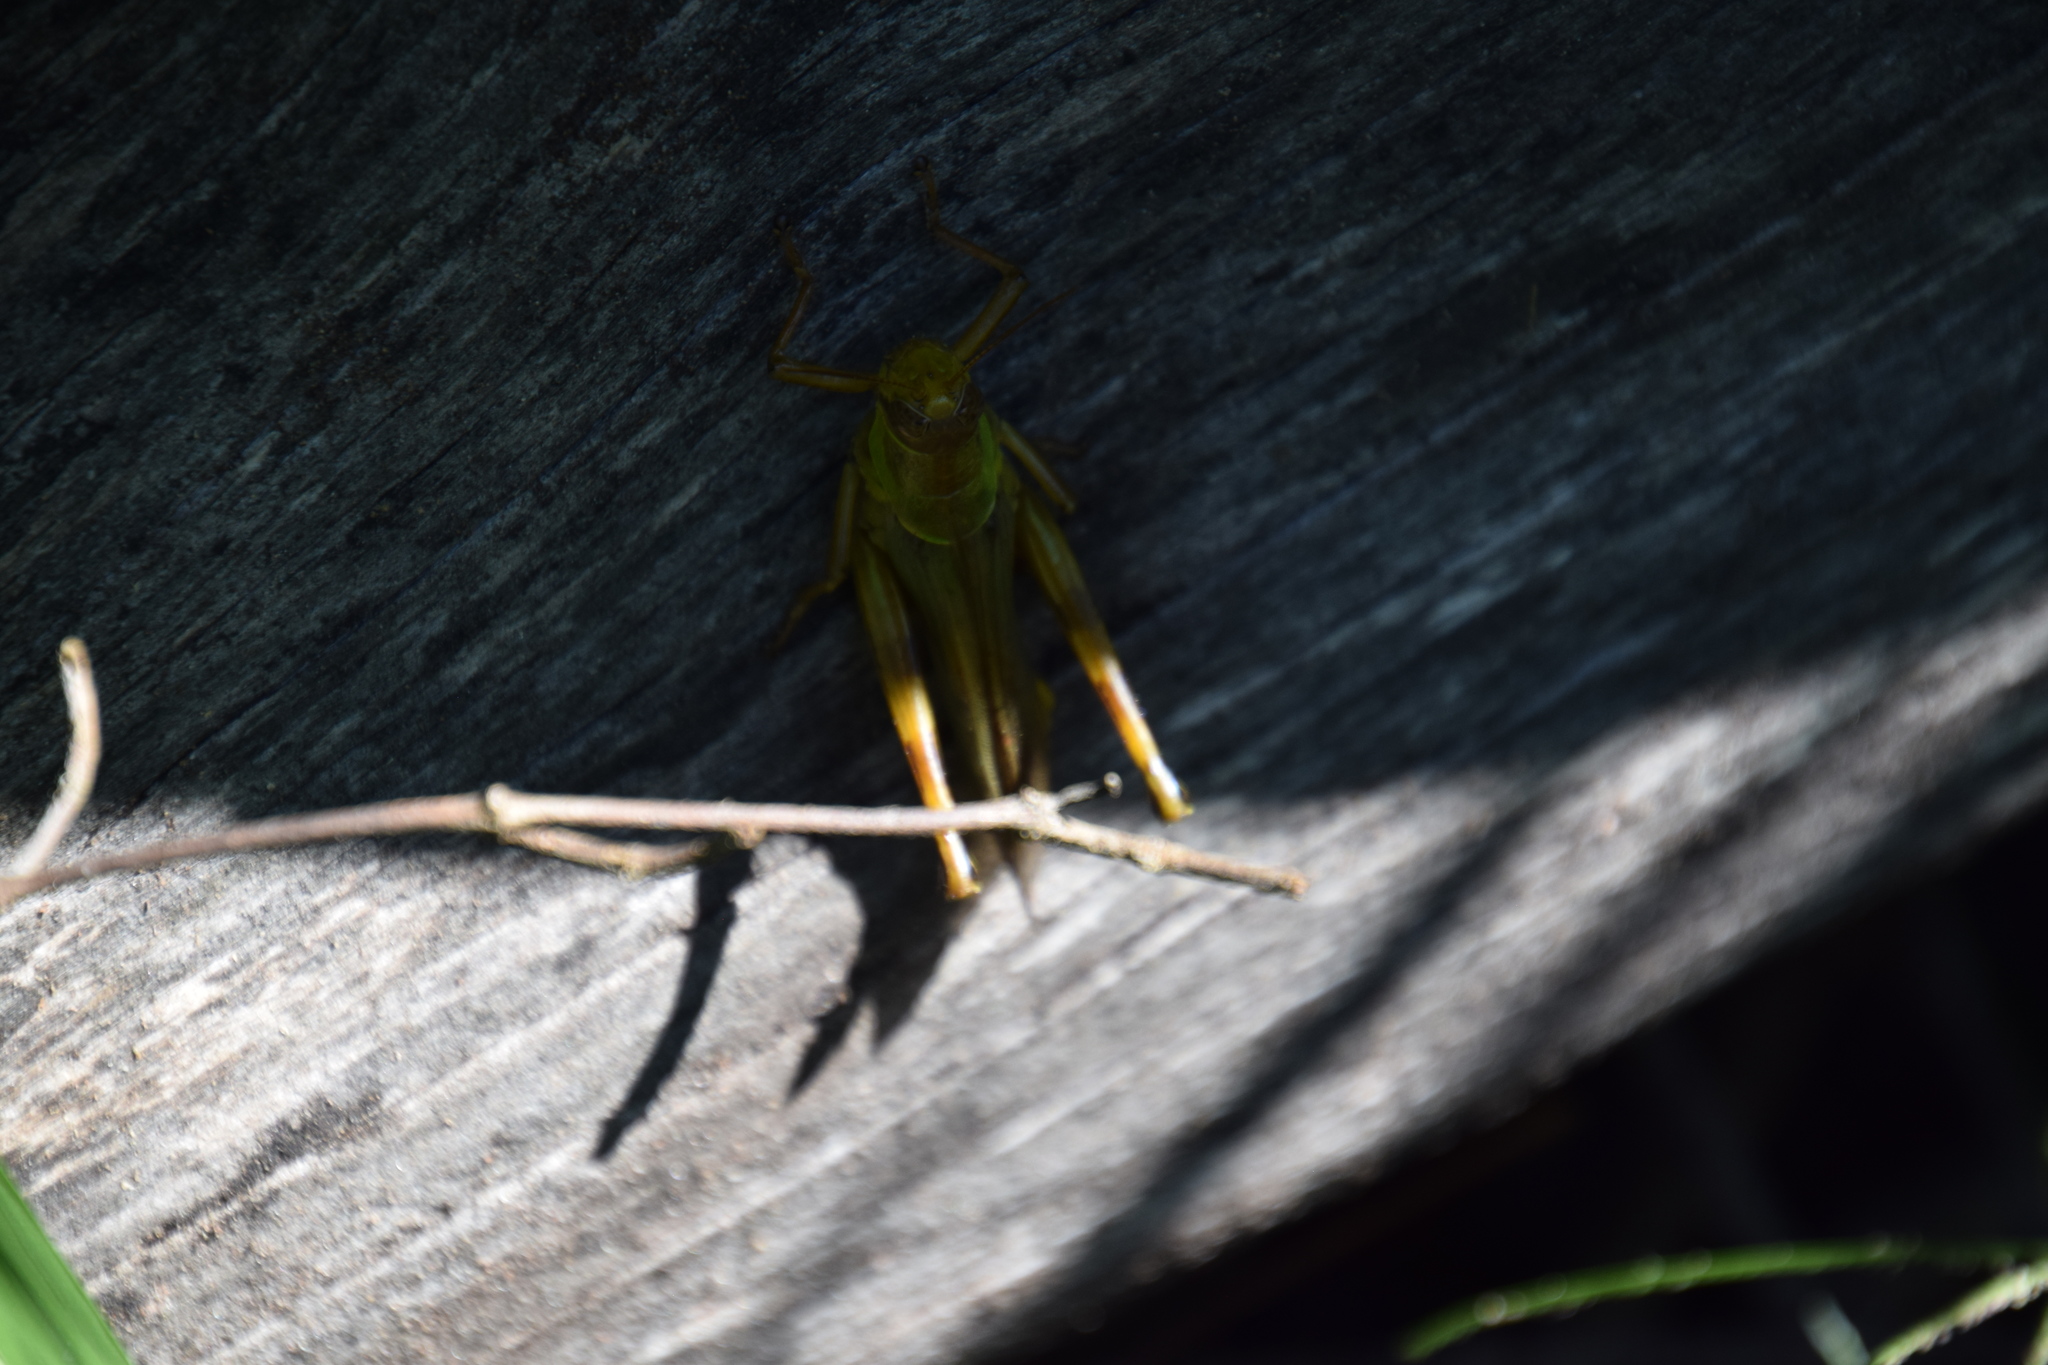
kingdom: Animalia
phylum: Arthropoda
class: Insecta
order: Orthoptera
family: Acrididae
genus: Valanga
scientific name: Valanga meleager
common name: Coastal valanga
